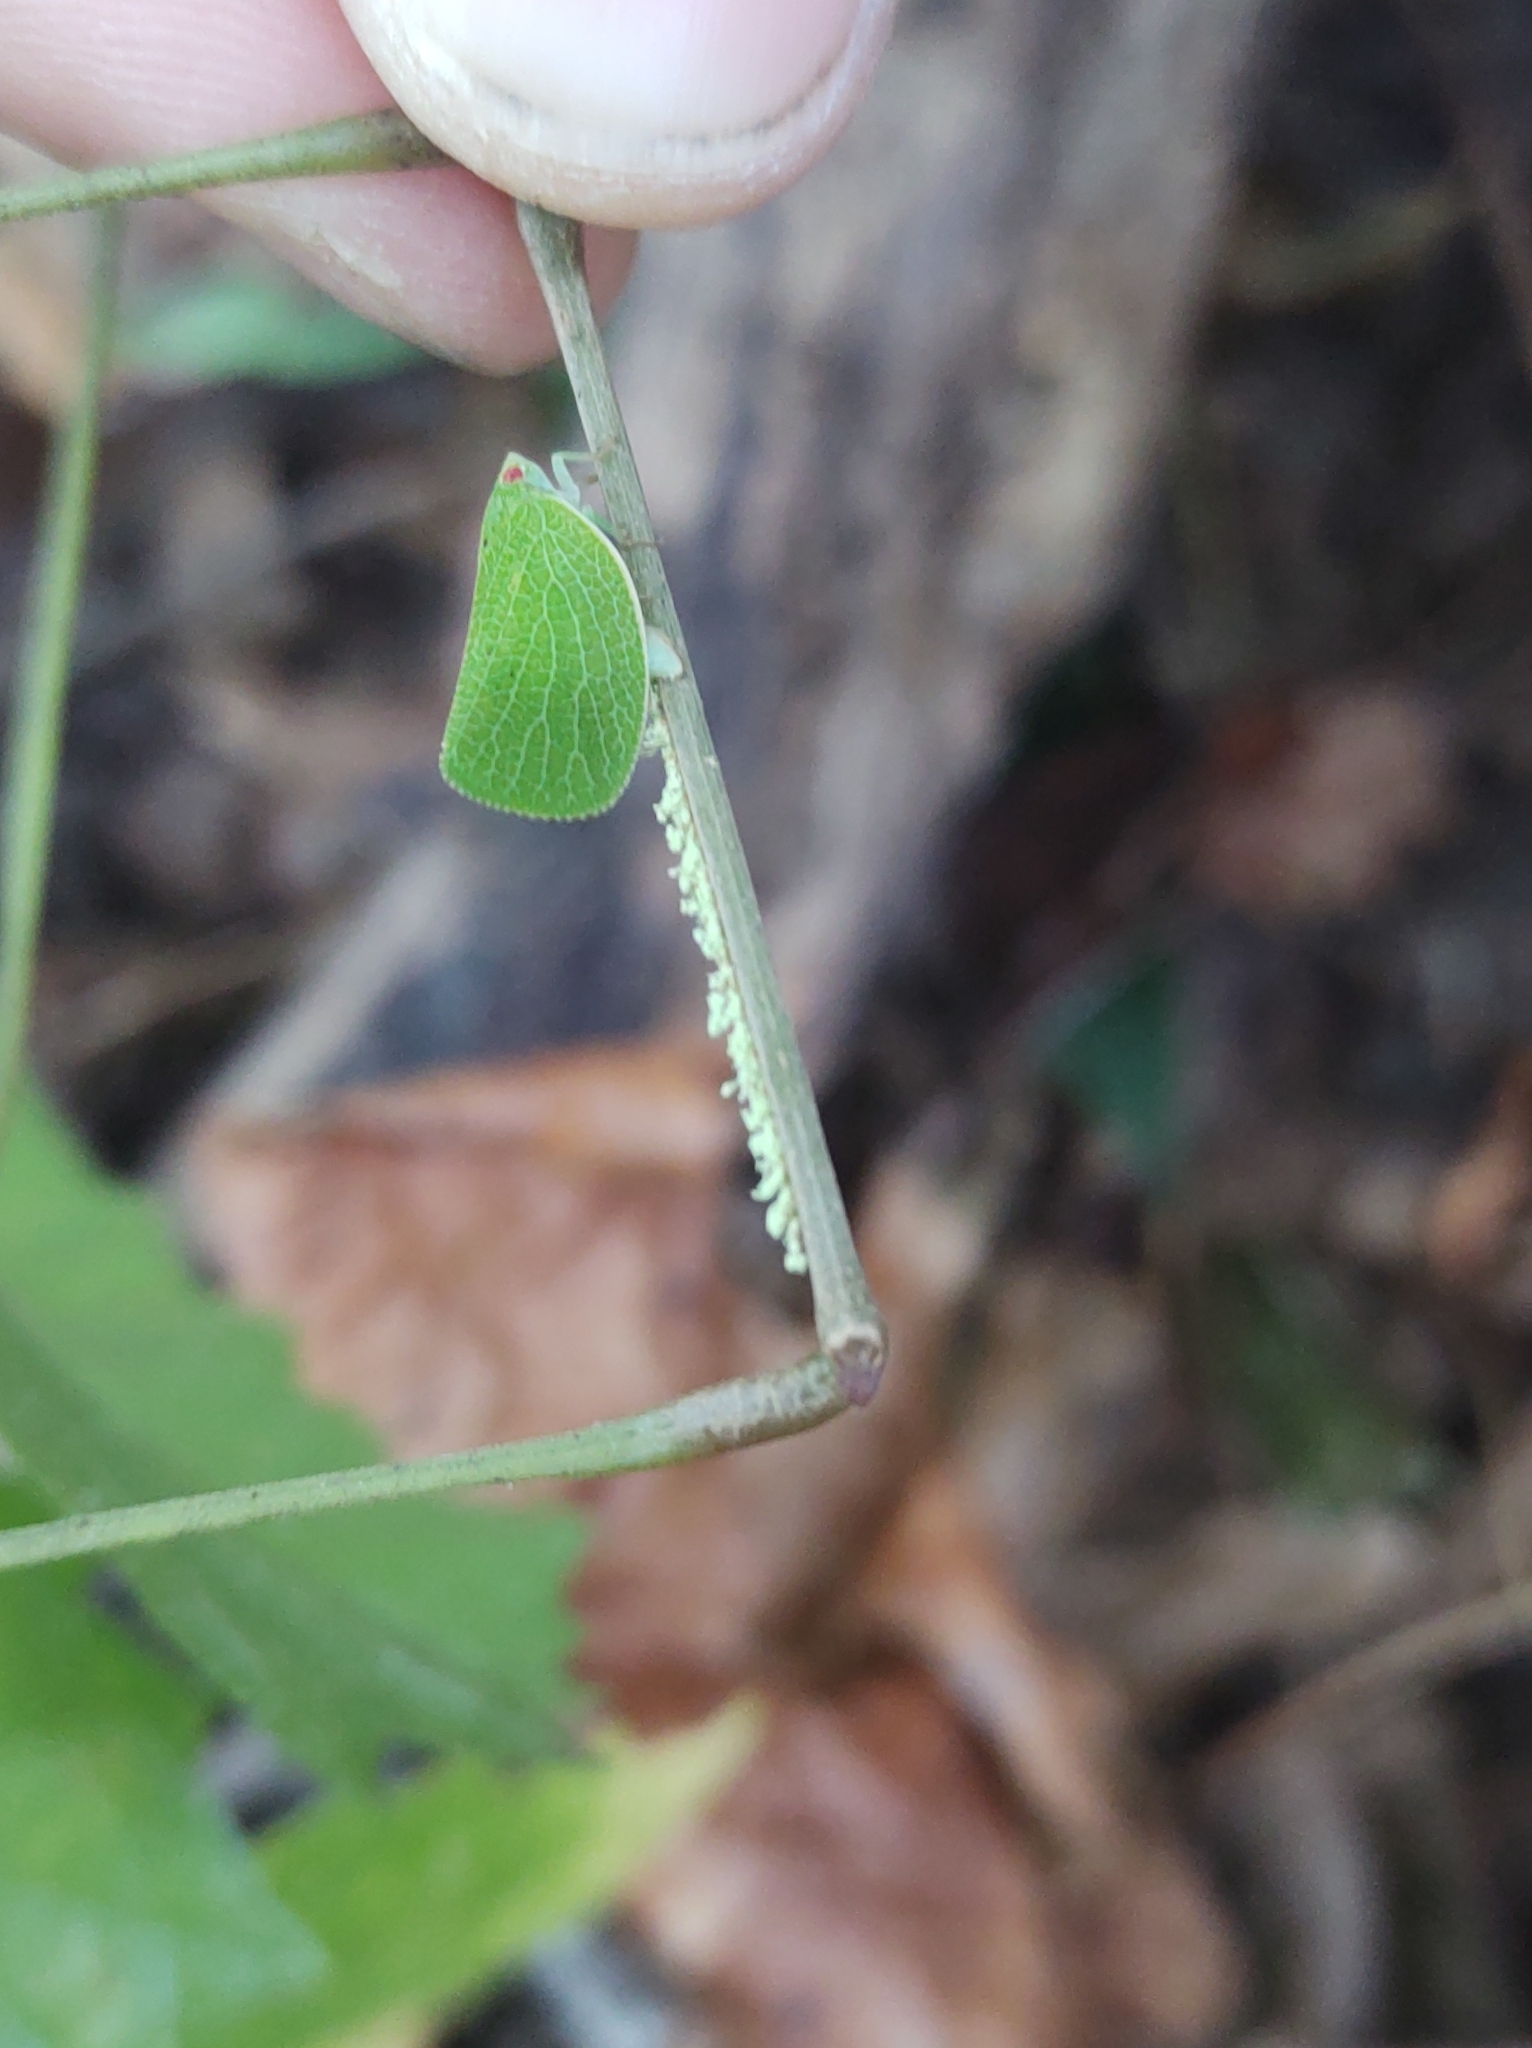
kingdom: Animalia
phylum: Arthropoda
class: Insecta
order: Hemiptera
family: Acanaloniidae
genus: Acanalonia
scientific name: Acanalonia conica
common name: Green cone-headed planthopper
